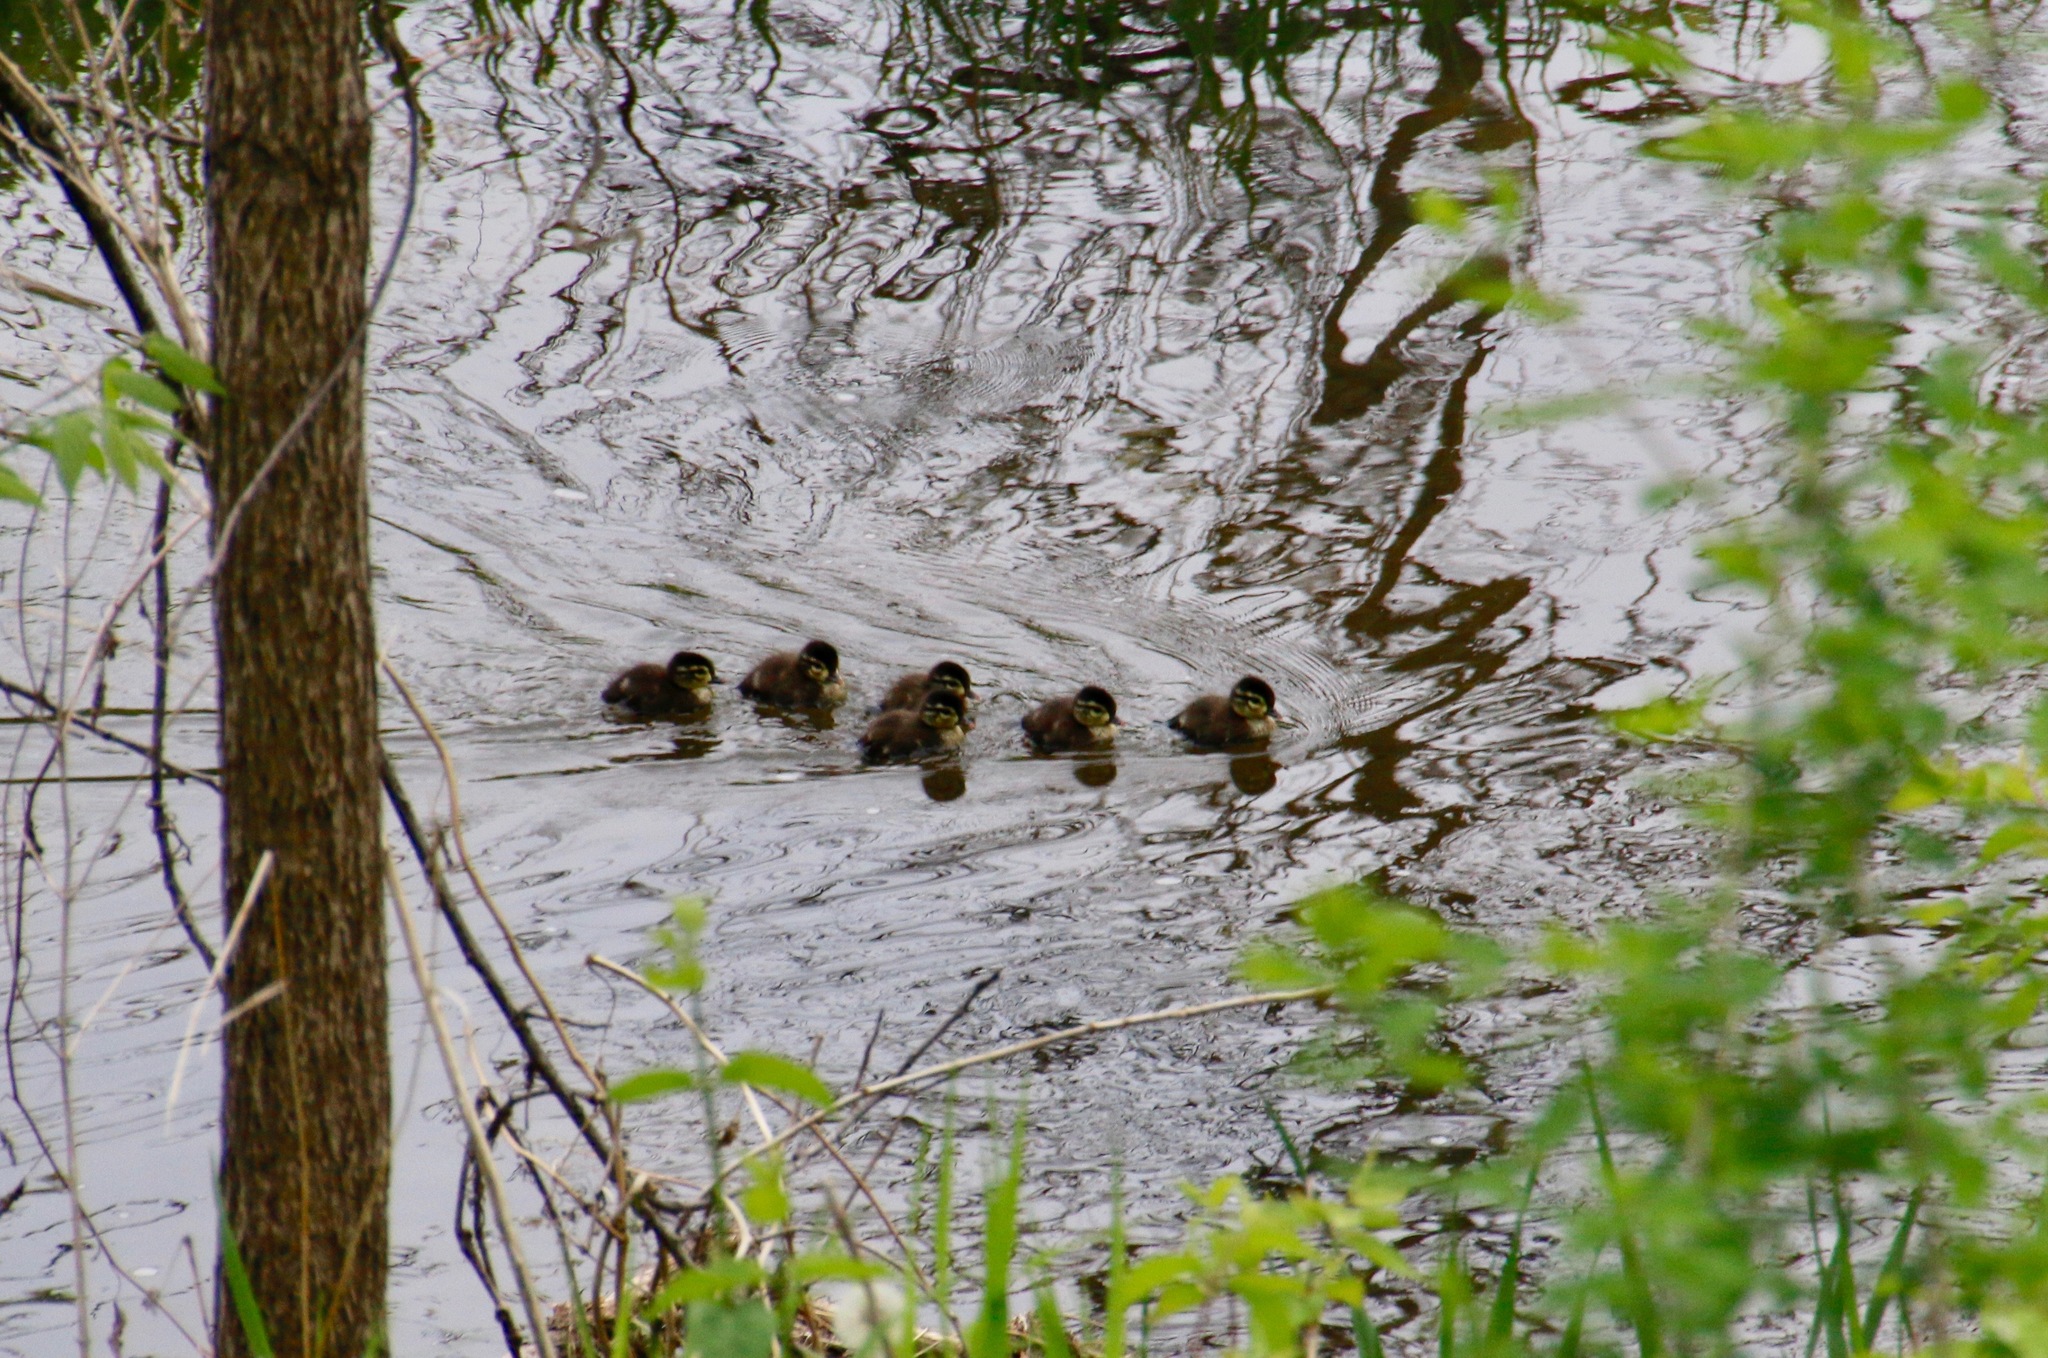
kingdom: Animalia
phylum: Chordata
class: Aves
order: Anseriformes
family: Anatidae
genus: Aix
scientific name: Aix sponsa
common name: Wood duck
